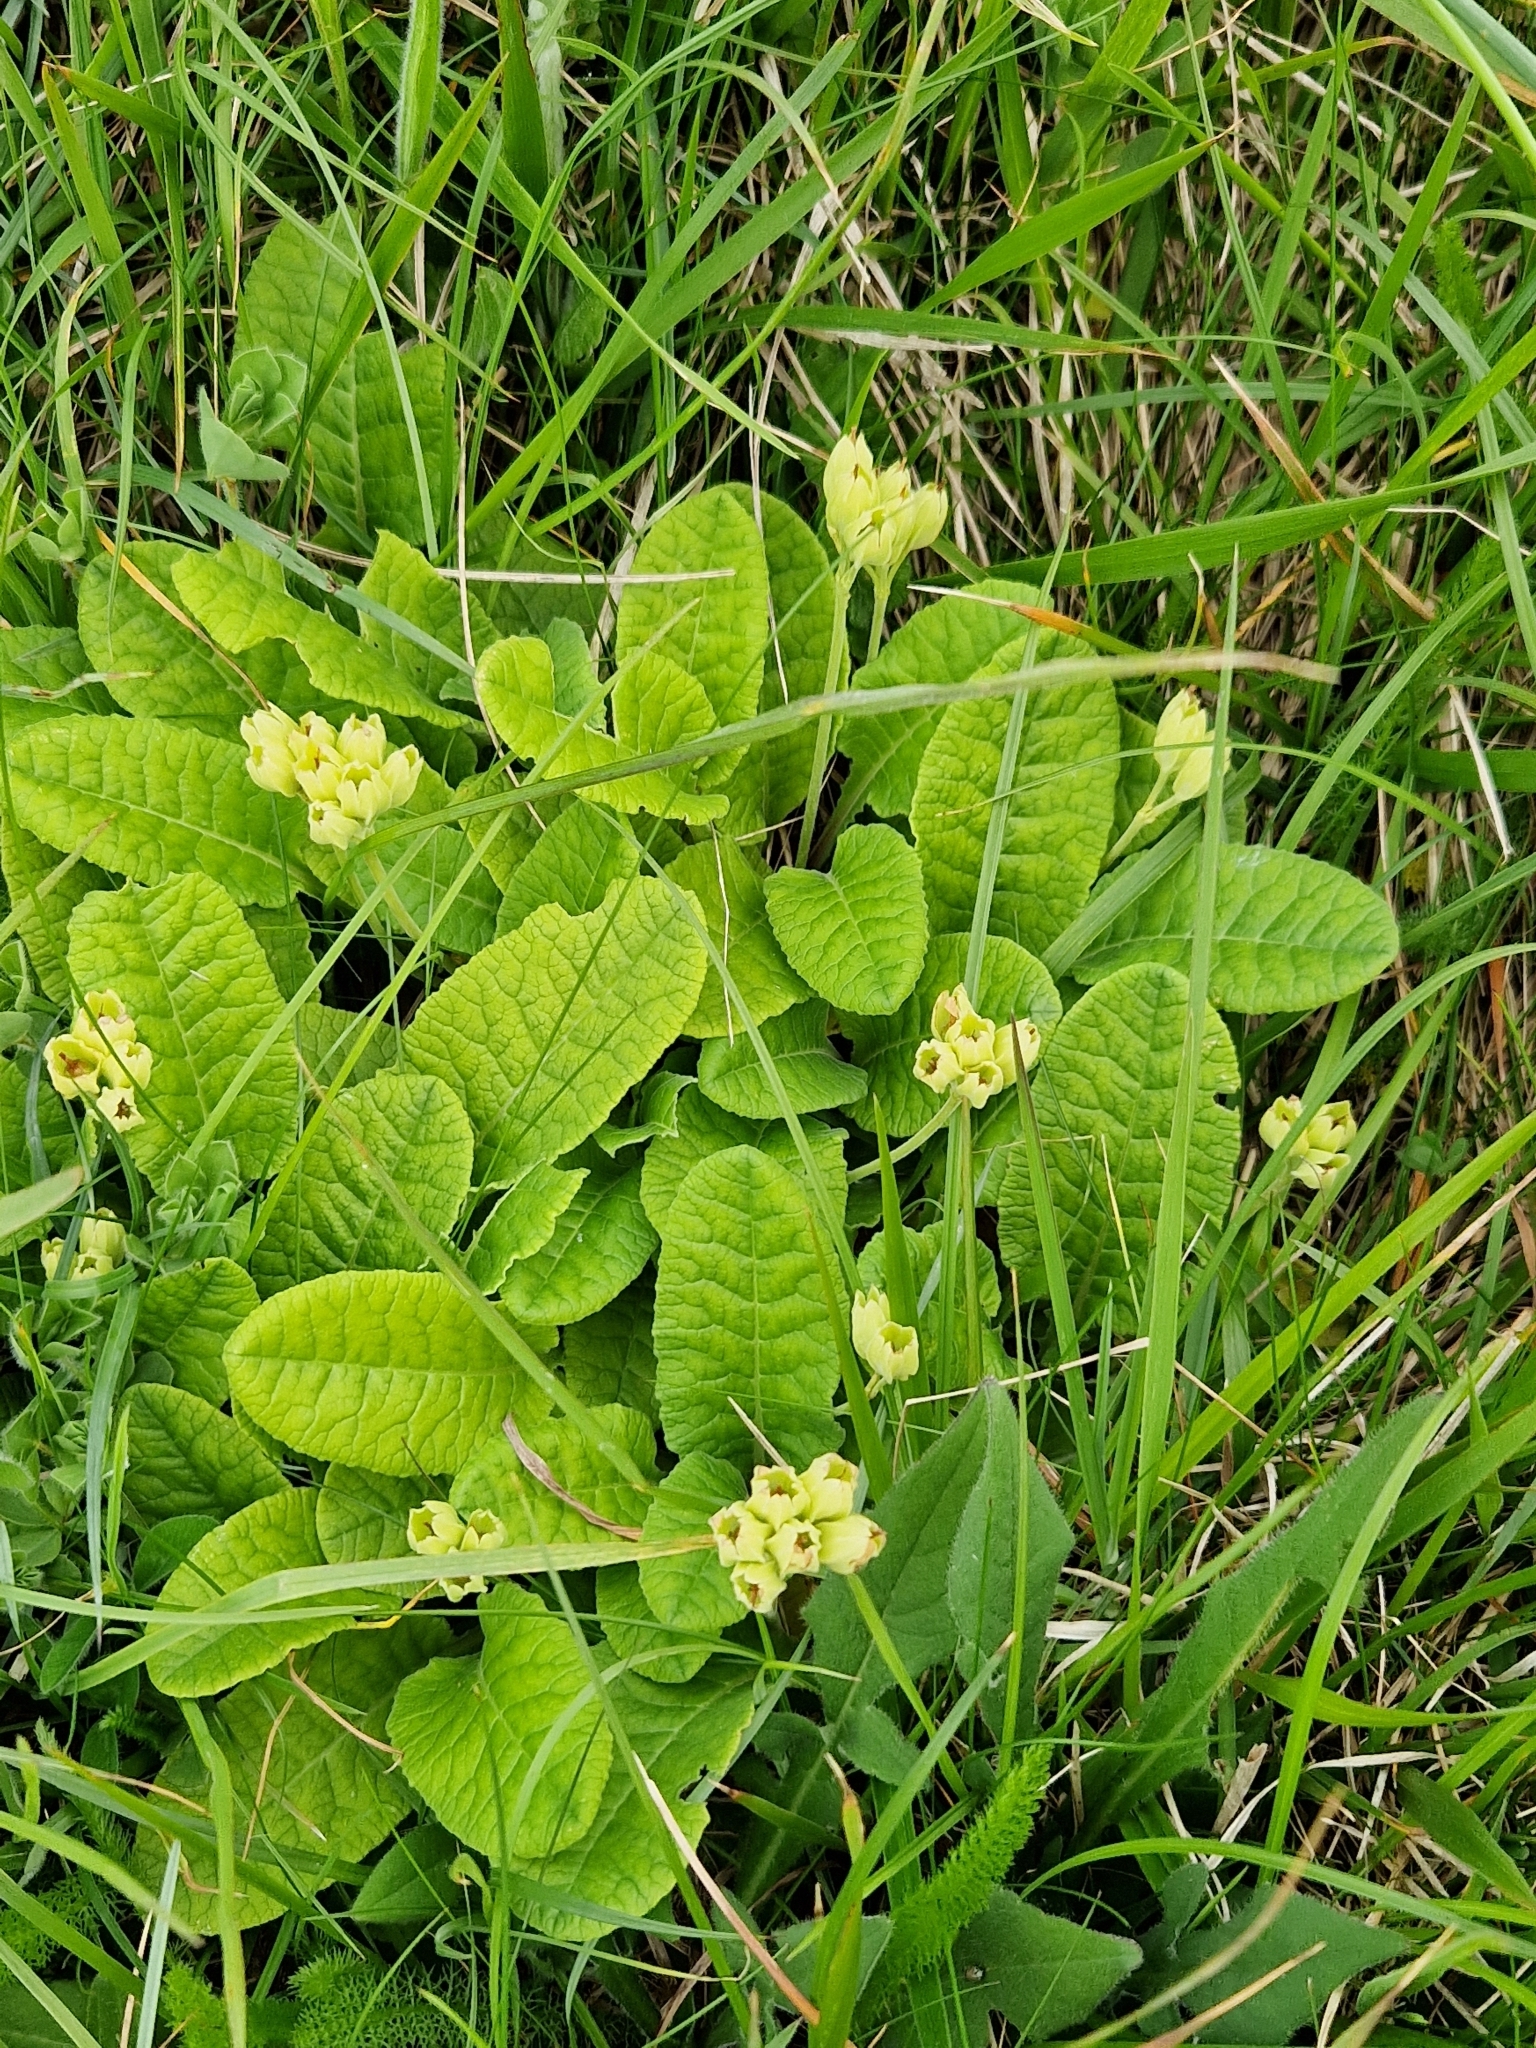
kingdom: Plantae
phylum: Tracheophyta
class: Magnoliopsida
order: Ericales
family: Primulaceae
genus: Primula
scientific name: Primula veris
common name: Cowslip
